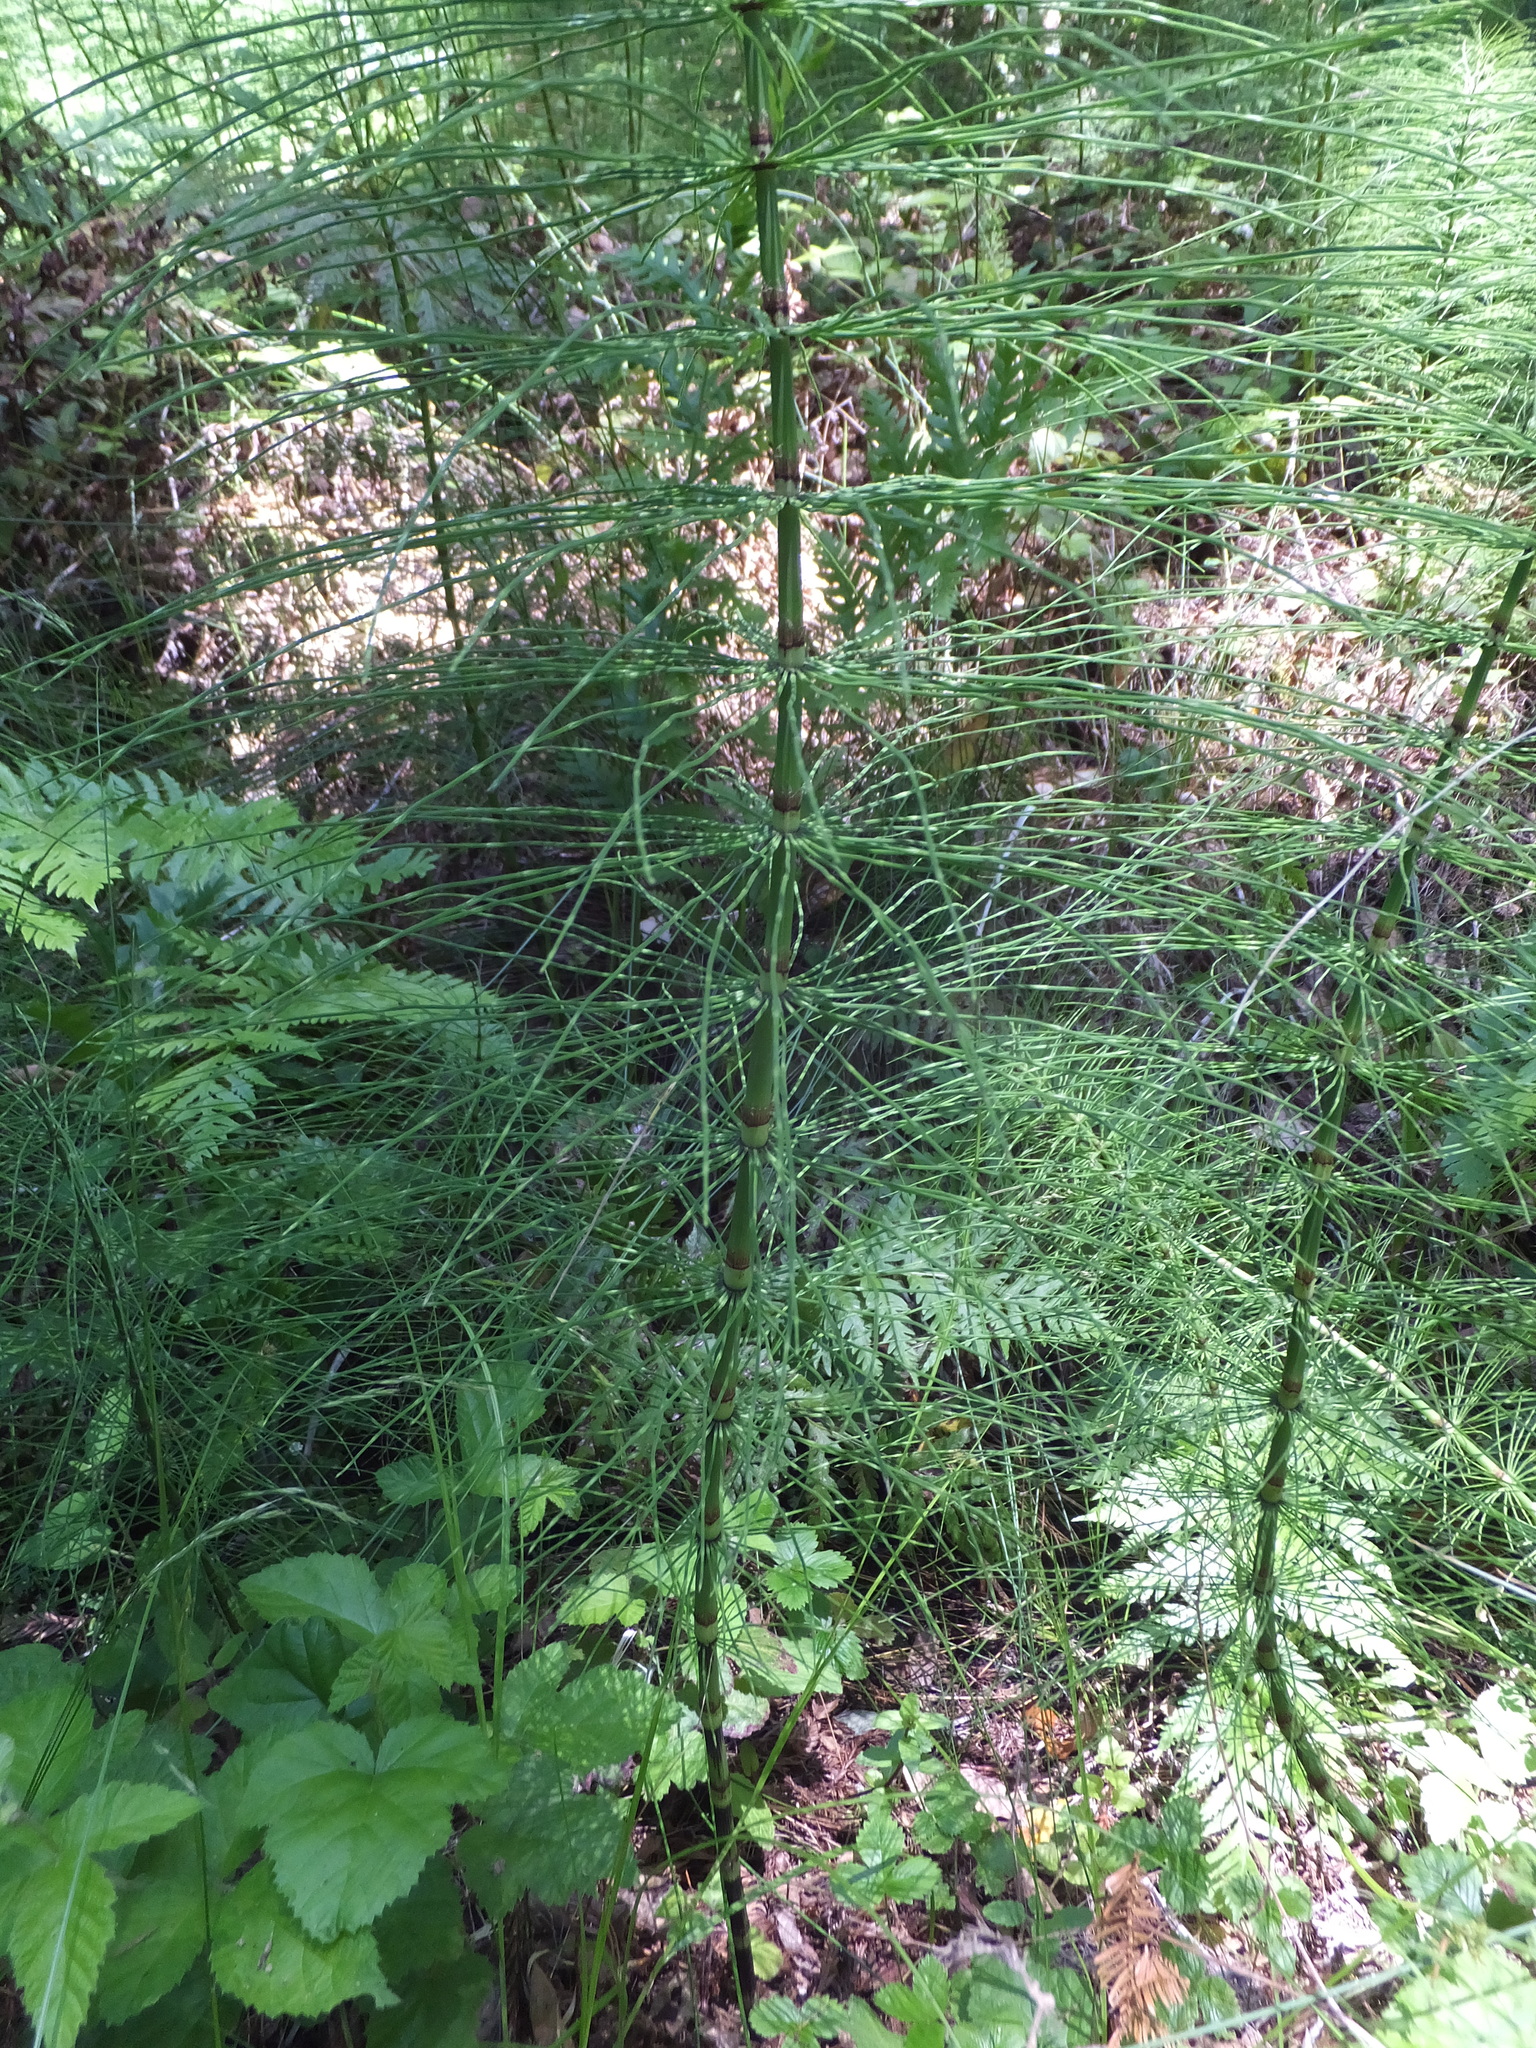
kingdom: Plantae
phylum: Tracheophyta
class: Polypodiopsida
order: Equisetales
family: Equisetaceae
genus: Equisetum
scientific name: Equisetum telmateia
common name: Great horsetail
